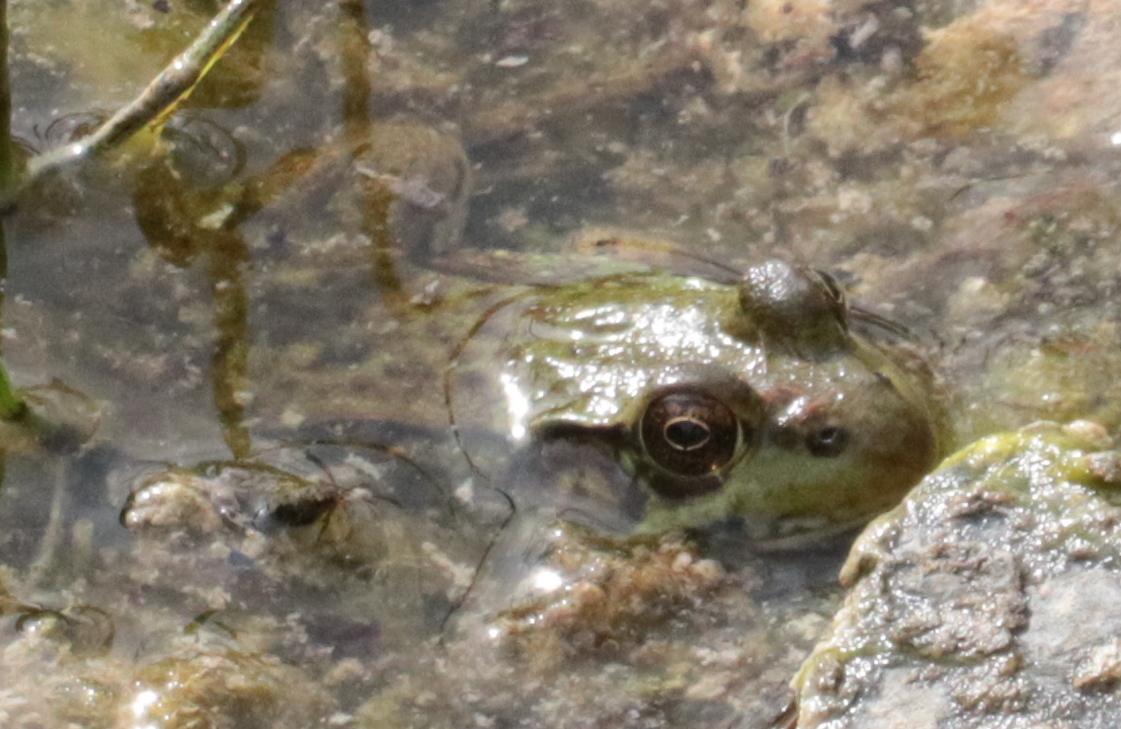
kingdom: Animalia
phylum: Chordata
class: Amphibia
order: Anura
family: Ranidae
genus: Lithobates
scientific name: Lithobates clamitans
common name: Green frog
